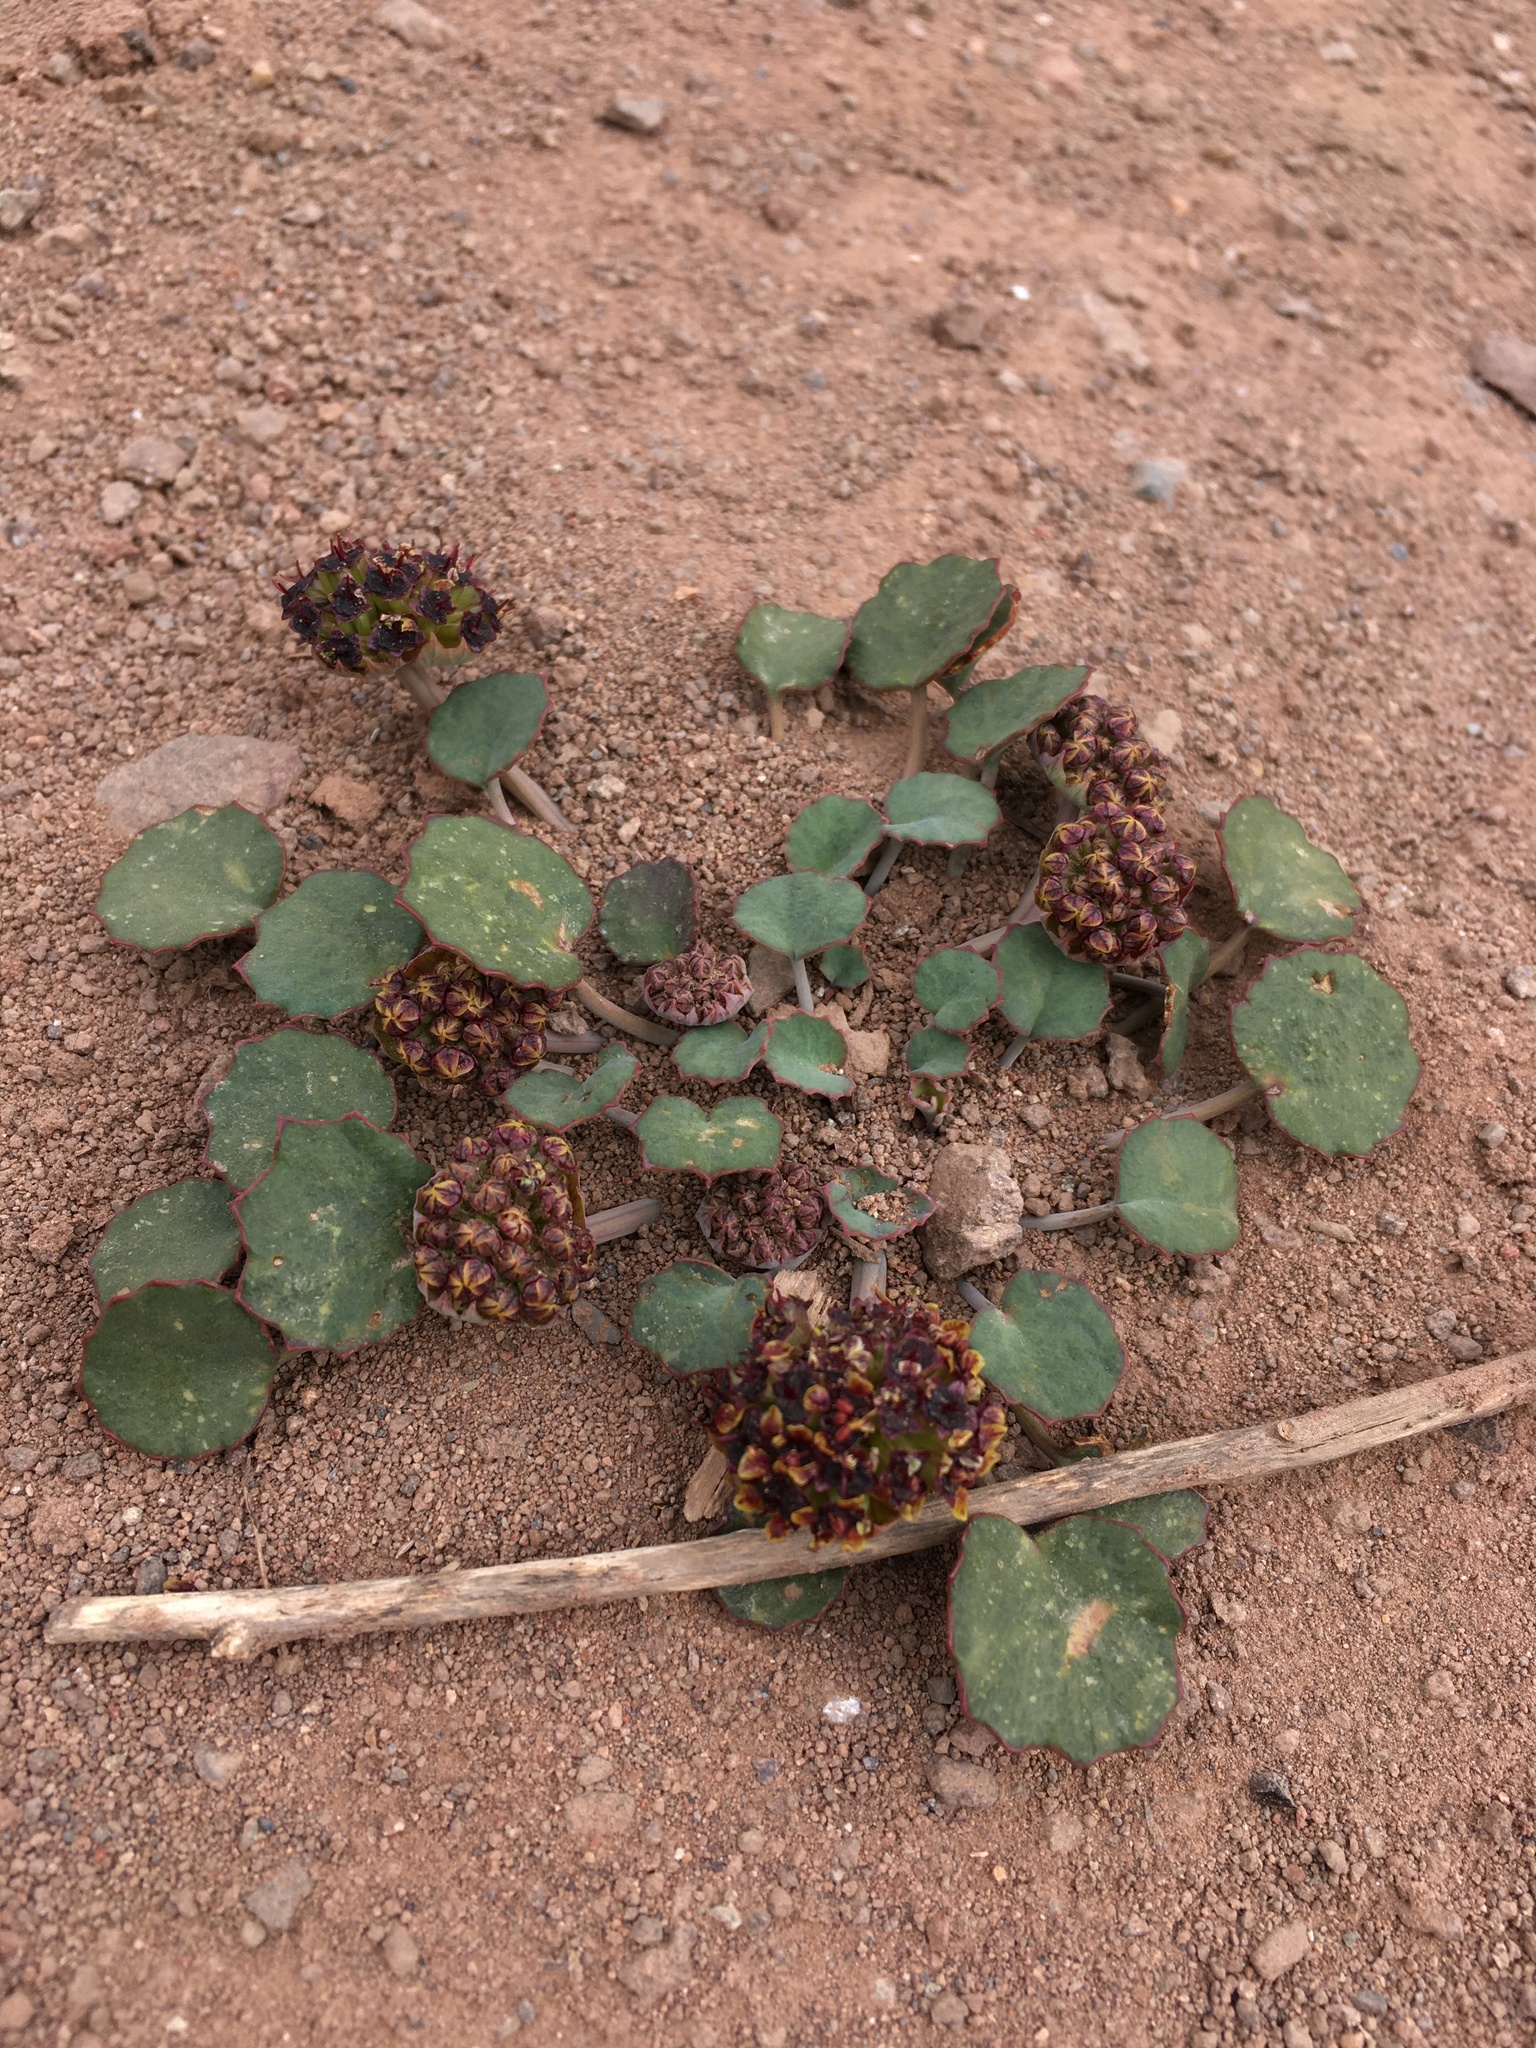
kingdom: Plantae
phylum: Tracheophyta
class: Magnoliopsida
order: Apiales
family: Apiaceae
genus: Pozoa
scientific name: Pozoa coriacea
